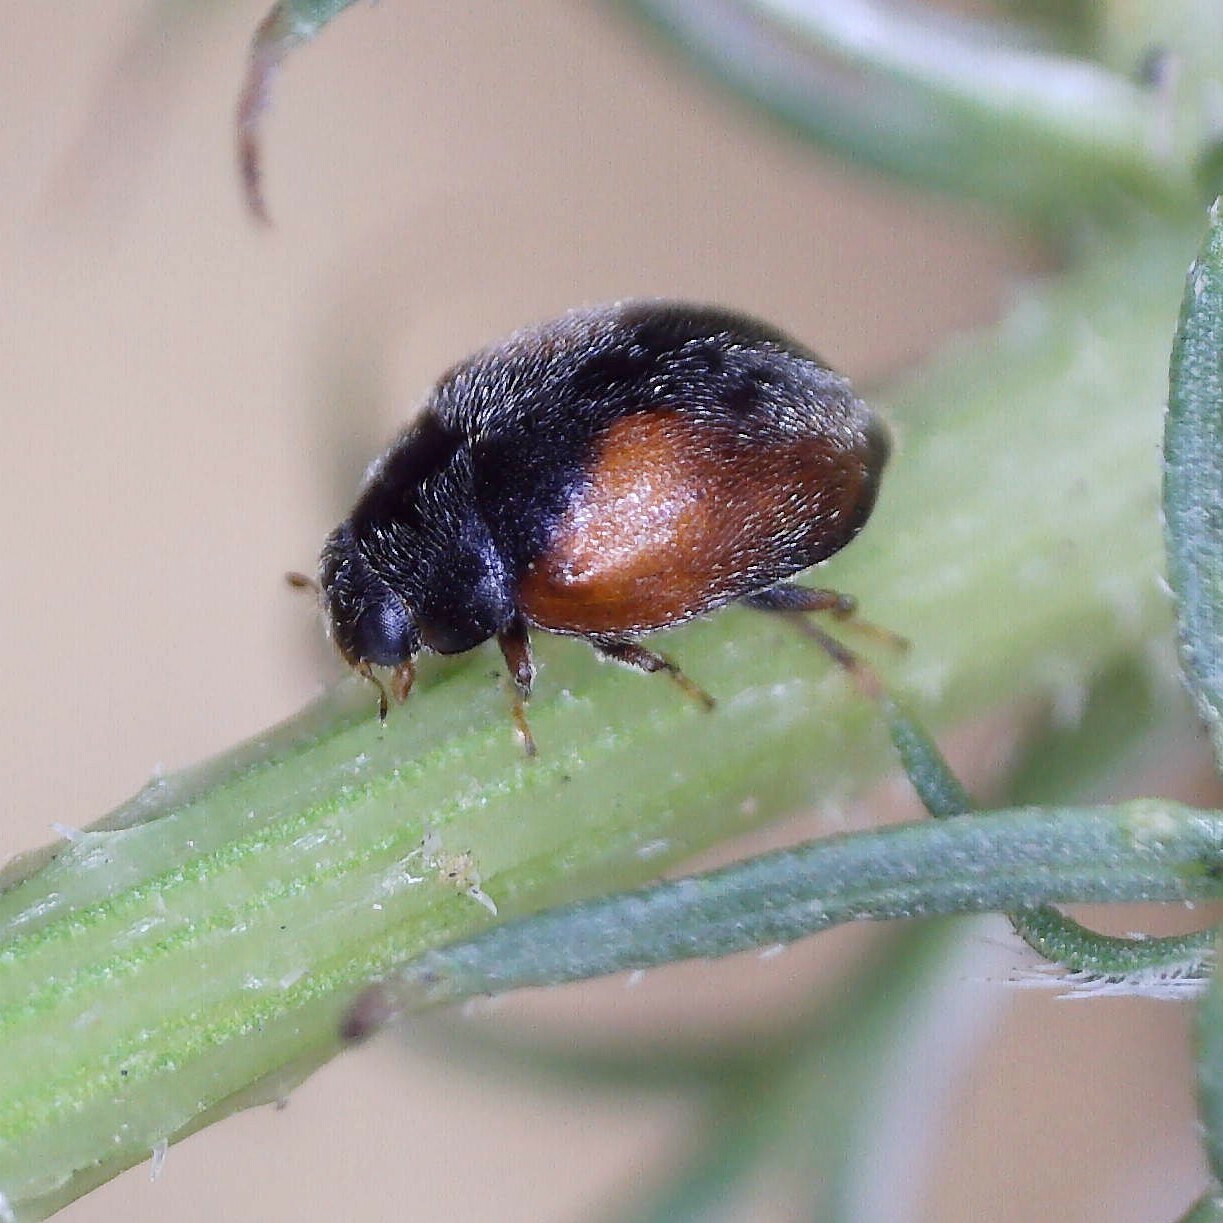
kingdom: Animalia
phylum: Arthropoda
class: Insecta
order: Coleoptera
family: Coccinellidae
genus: Scymnus
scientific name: Scymnus interruptus
